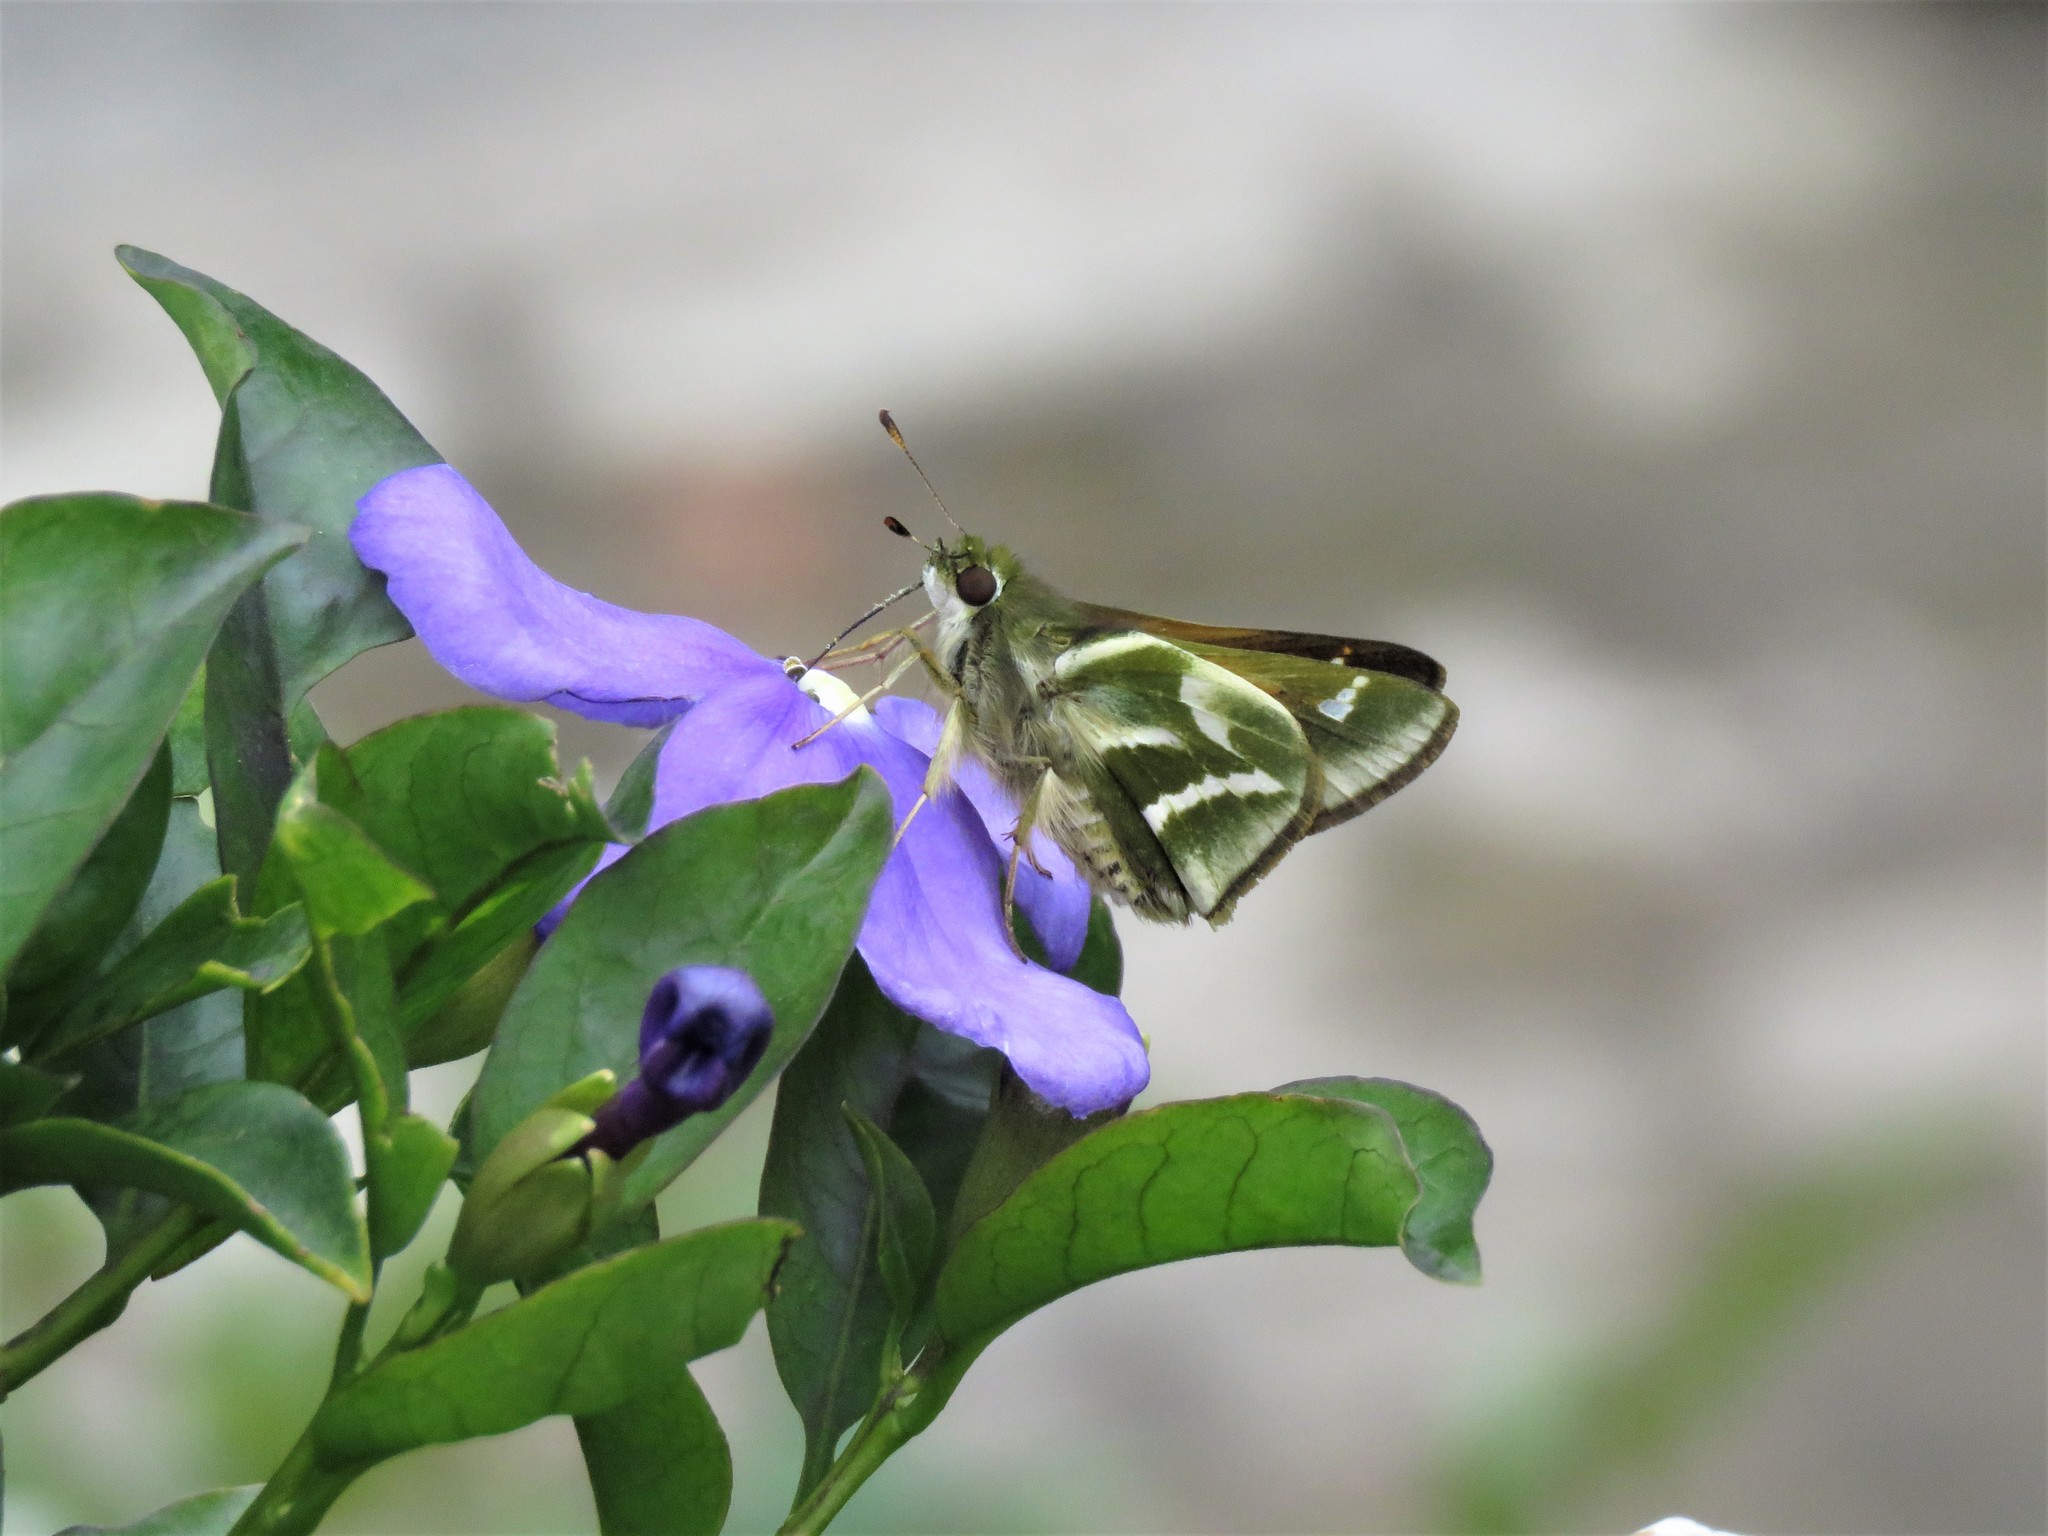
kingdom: Animalia
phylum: Arthropoda
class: Insecta
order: Lepidoptera
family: Hesperiidae
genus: Serdis
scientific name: Serdis venezuelae
